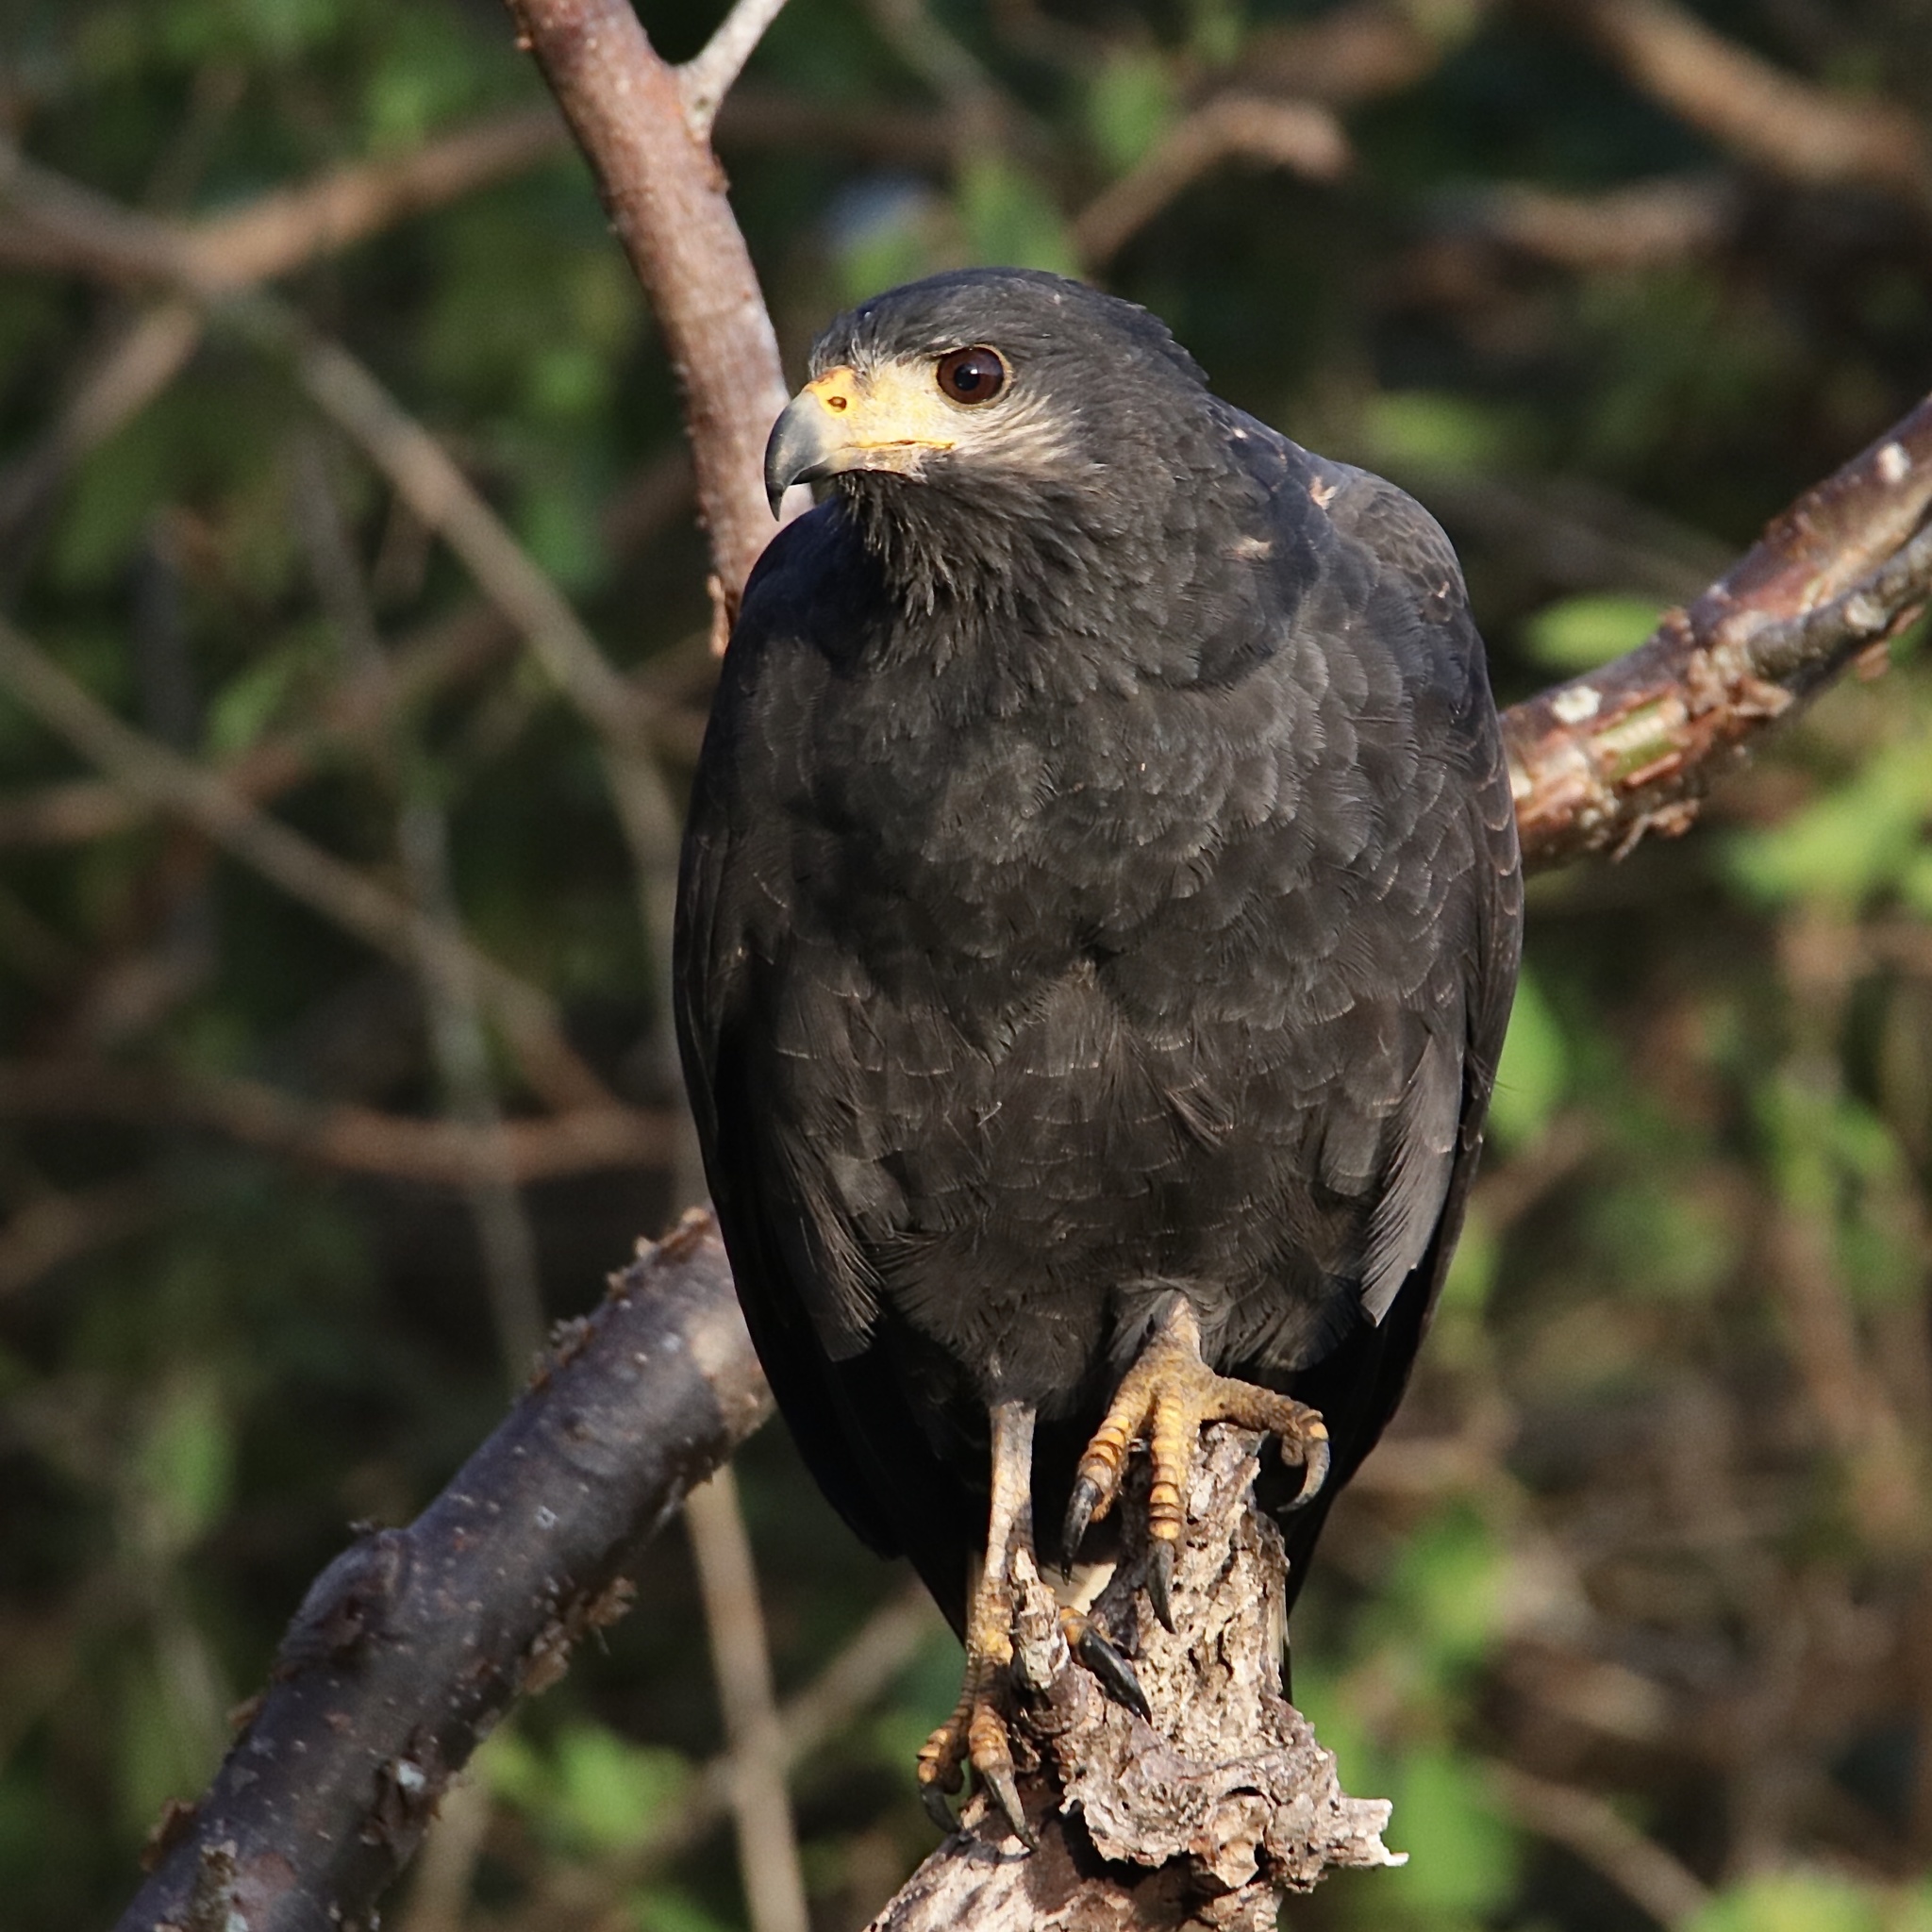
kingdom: Animalia
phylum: Chordata
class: Aves
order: Accipitriformes
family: Accipitridae
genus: Buteogallus
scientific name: Buteogallus anthracinus
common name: Common black hawk
